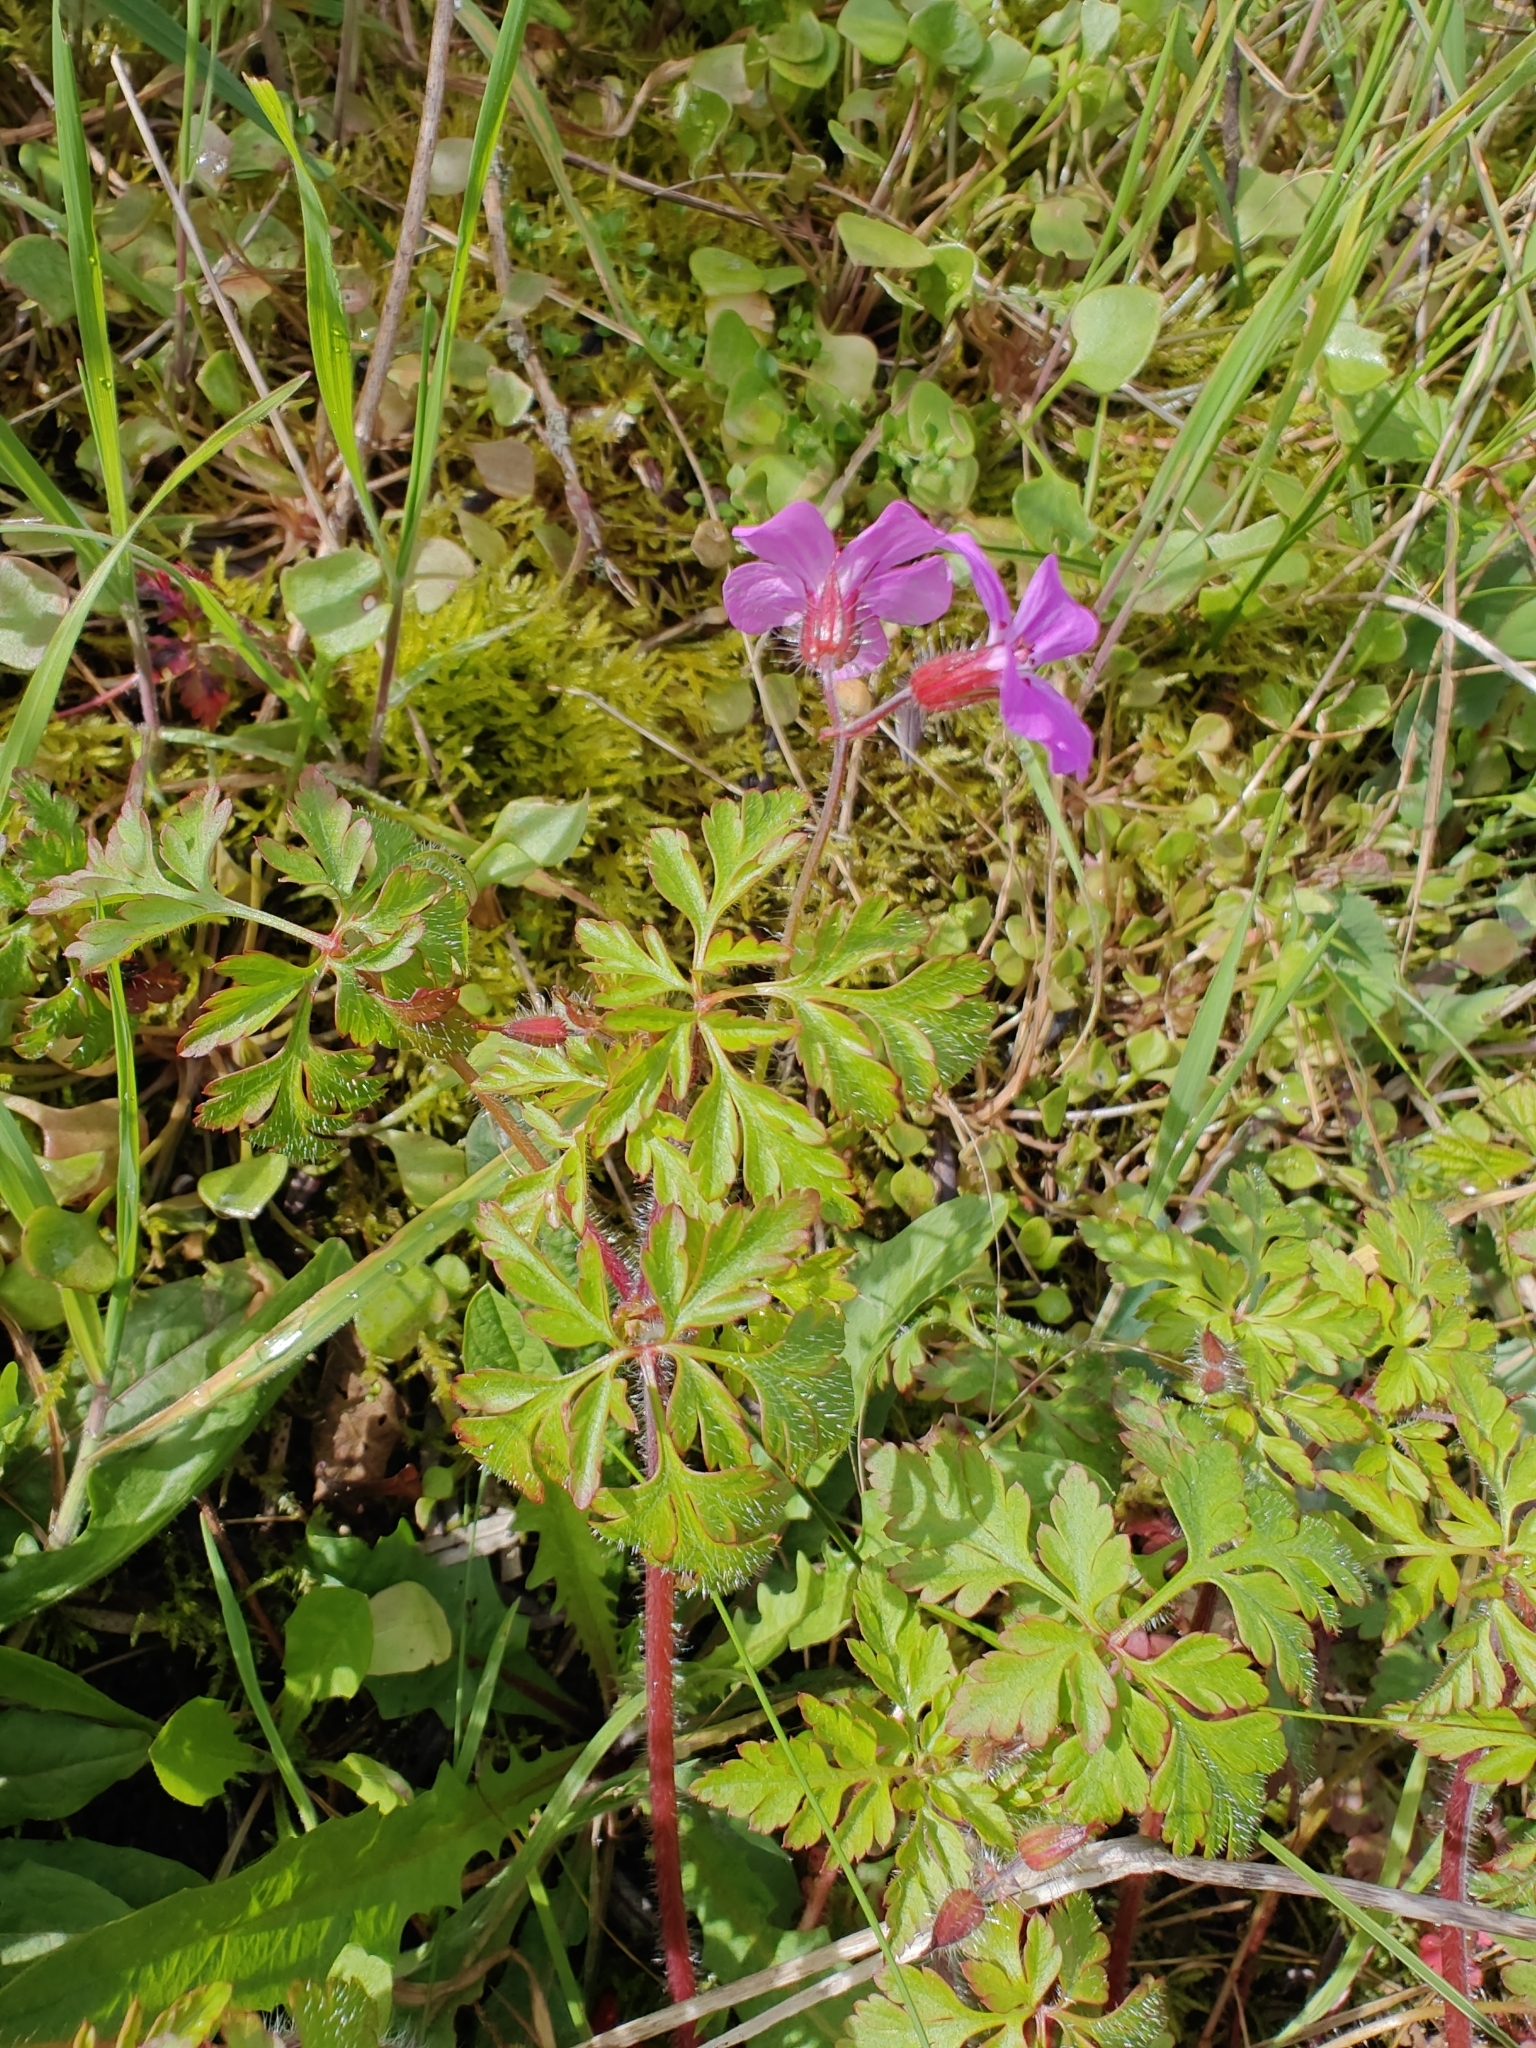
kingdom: Plantae
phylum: Tracheophyta
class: Magnoliopsida
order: Geraniales
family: Geraniaceae
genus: Geranium
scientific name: Geranium robertianum
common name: Herb-robert
